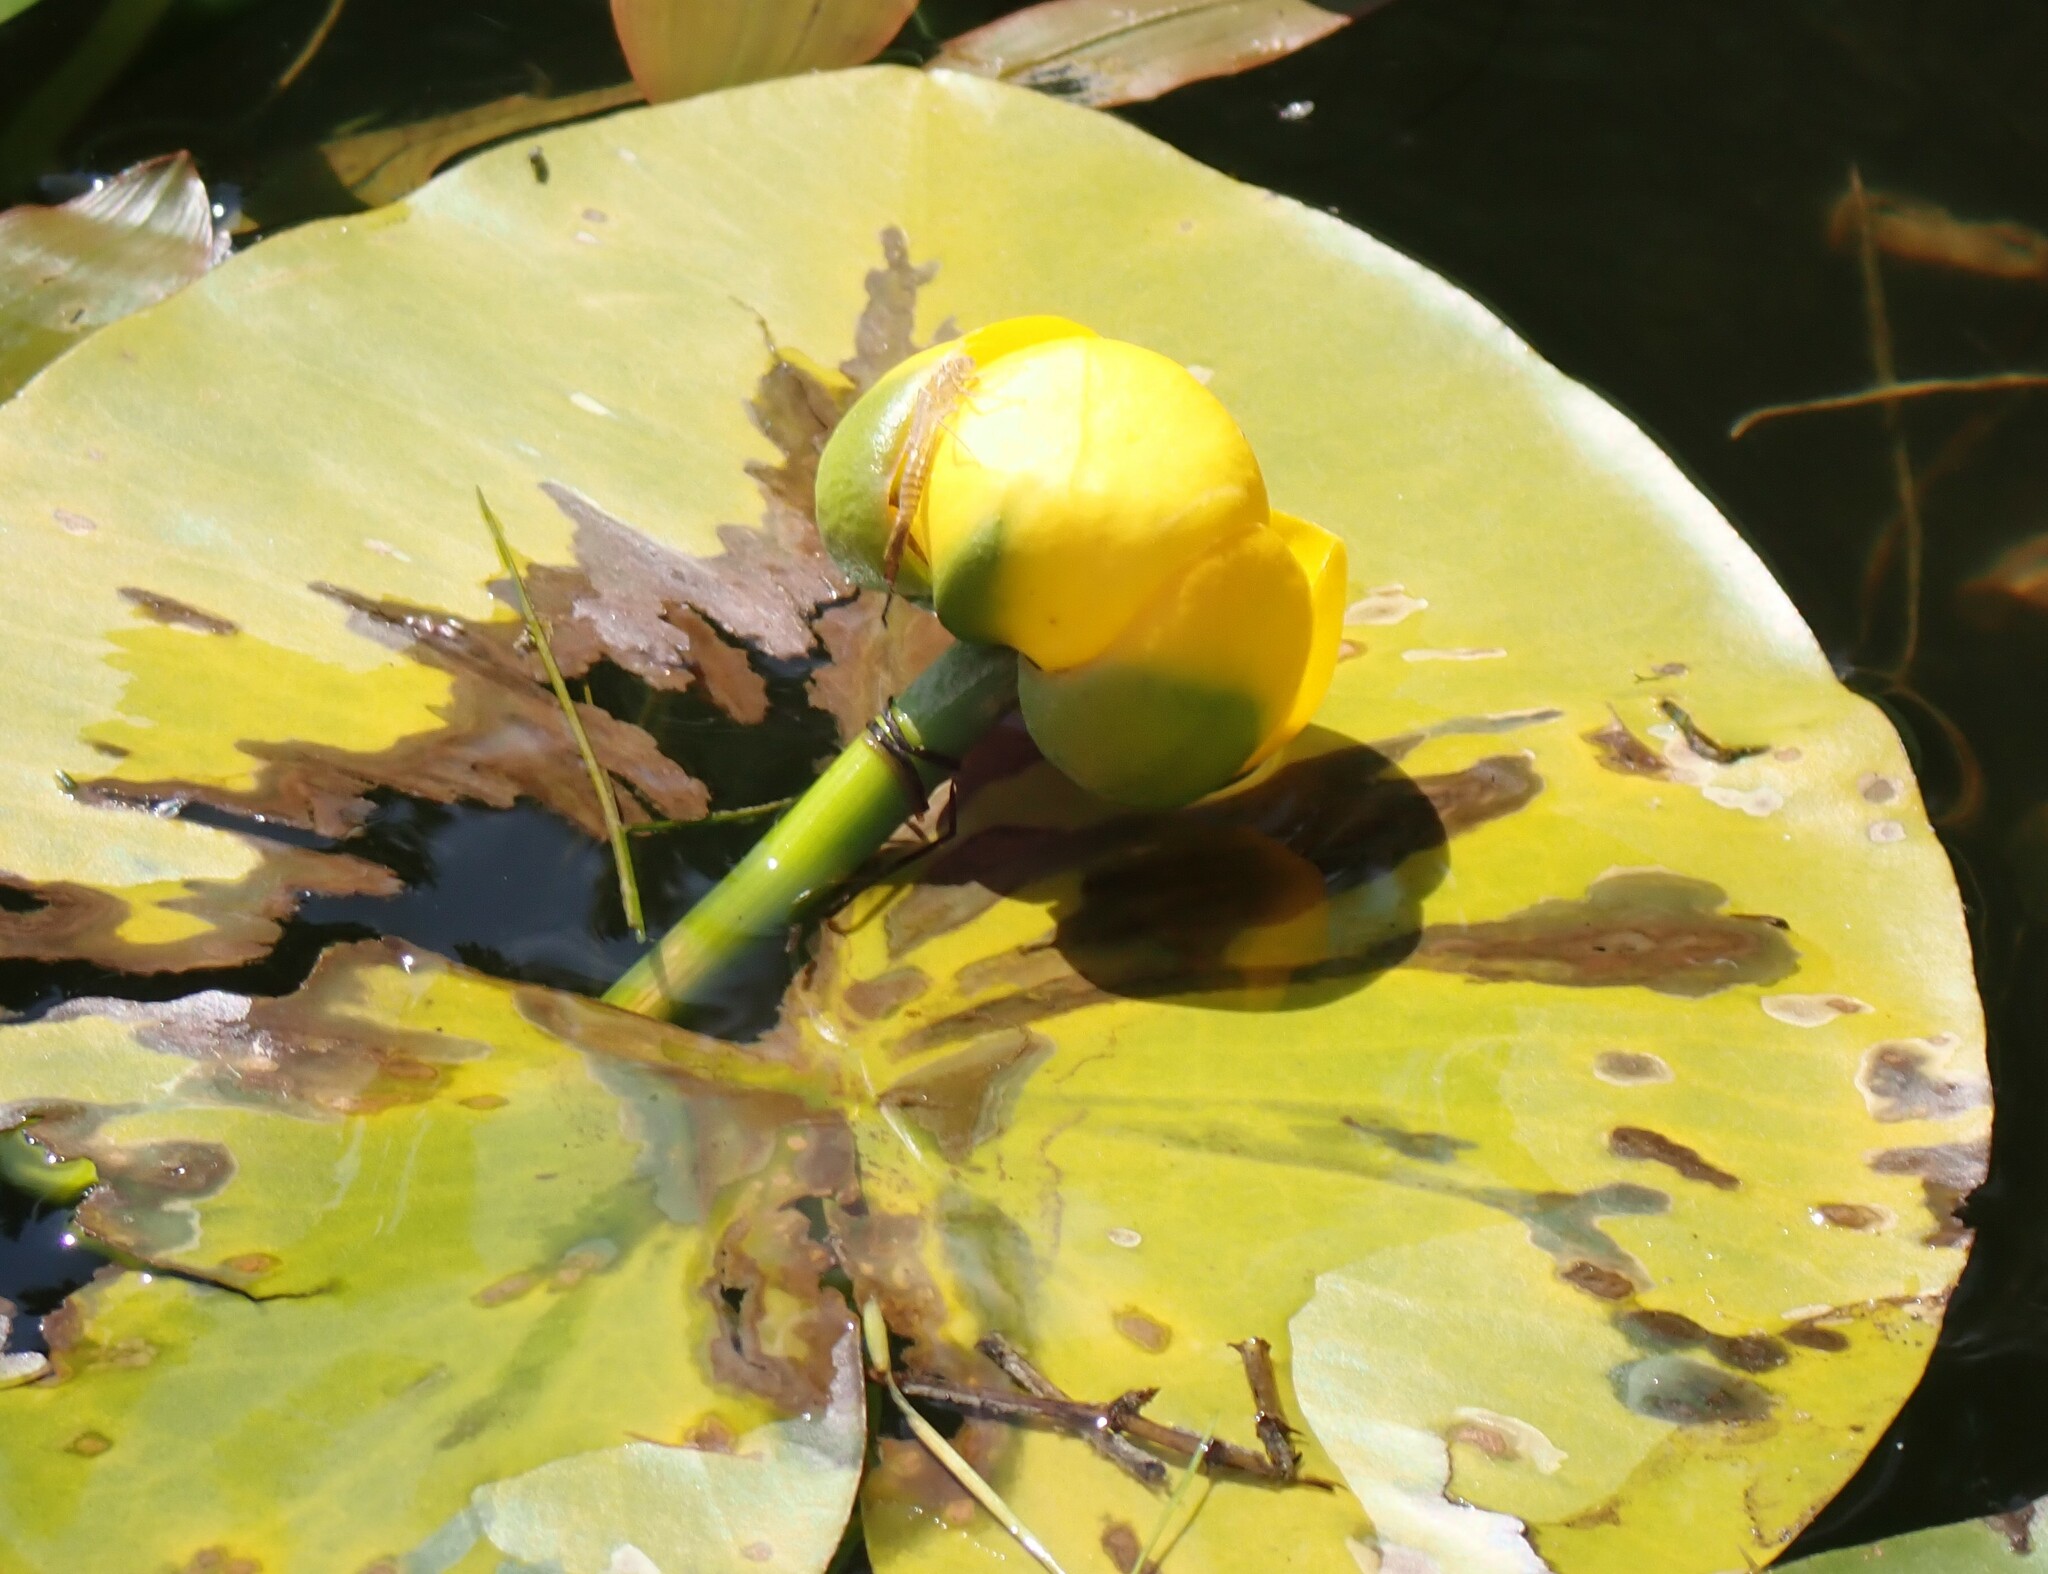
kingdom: Plantae
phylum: Tracheophyta
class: Magnoliopsida
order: Nymphaeales
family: Nymphaeaceae
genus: Nuphar
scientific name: Nuphar variegata
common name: Beaver-root
